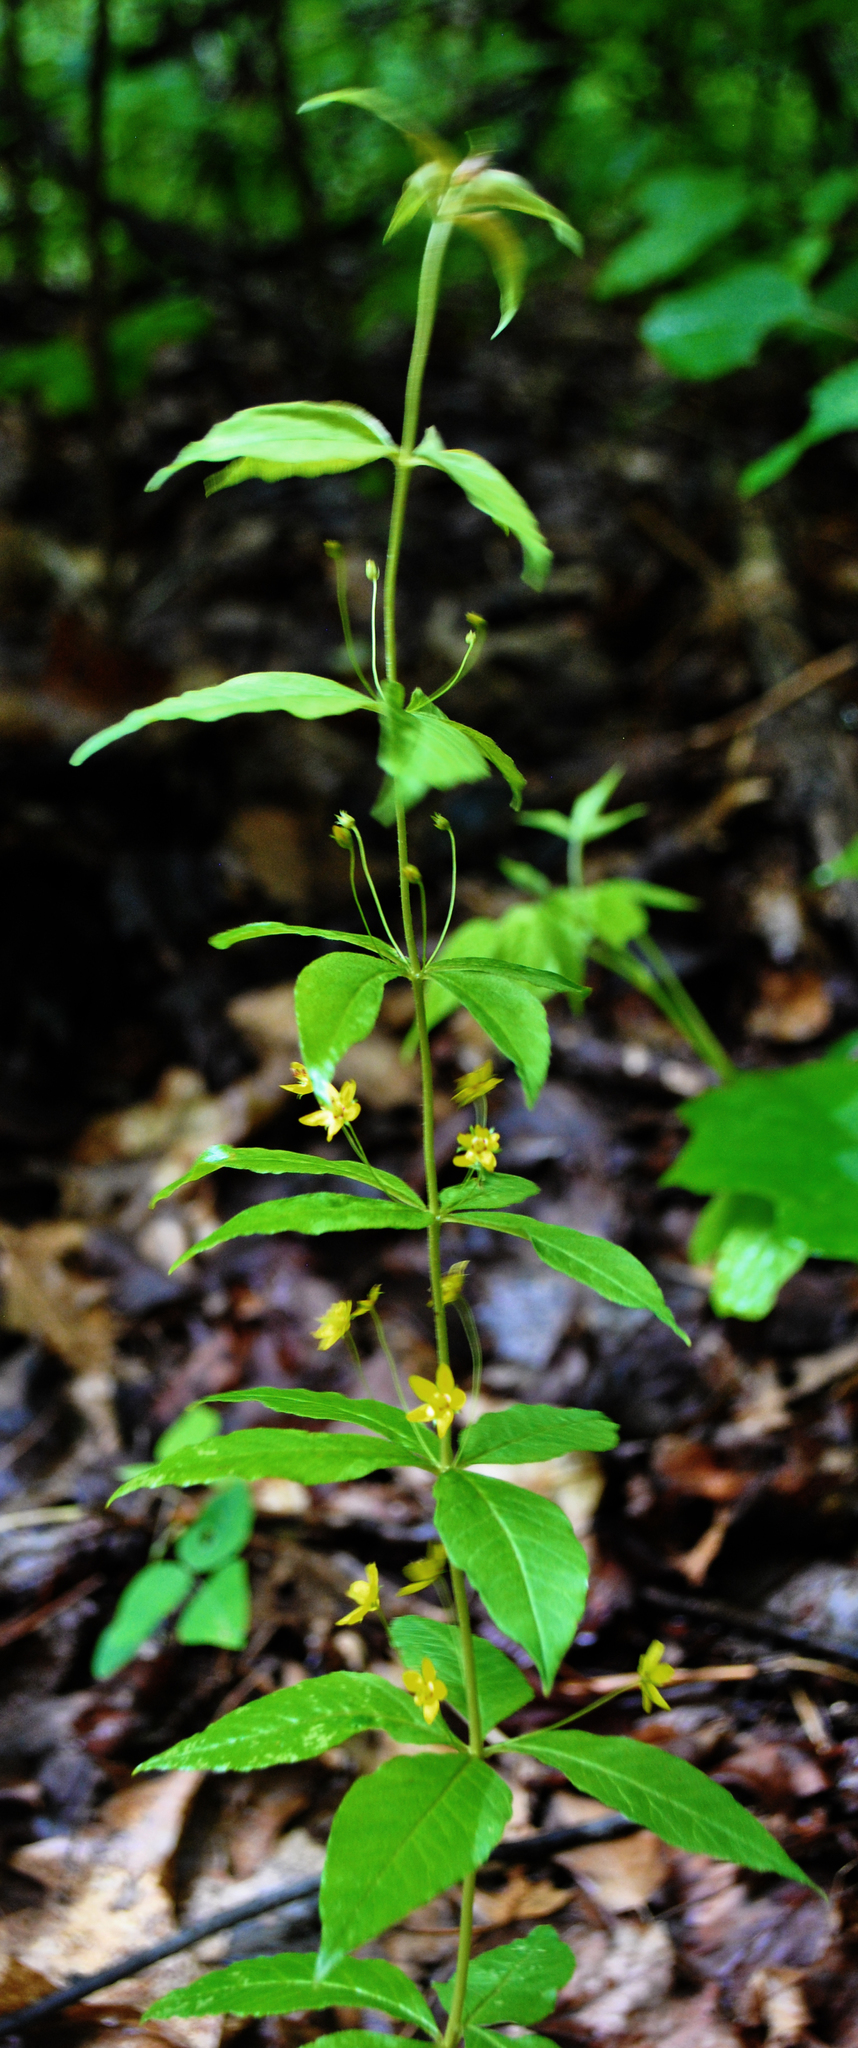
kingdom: Plantae
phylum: Tracheophyta
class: Magnoliopsida
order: Ericales
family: Primulaceae
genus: Lysimachia
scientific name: Lysimachia quadrifolia
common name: Whorled loosestrife
